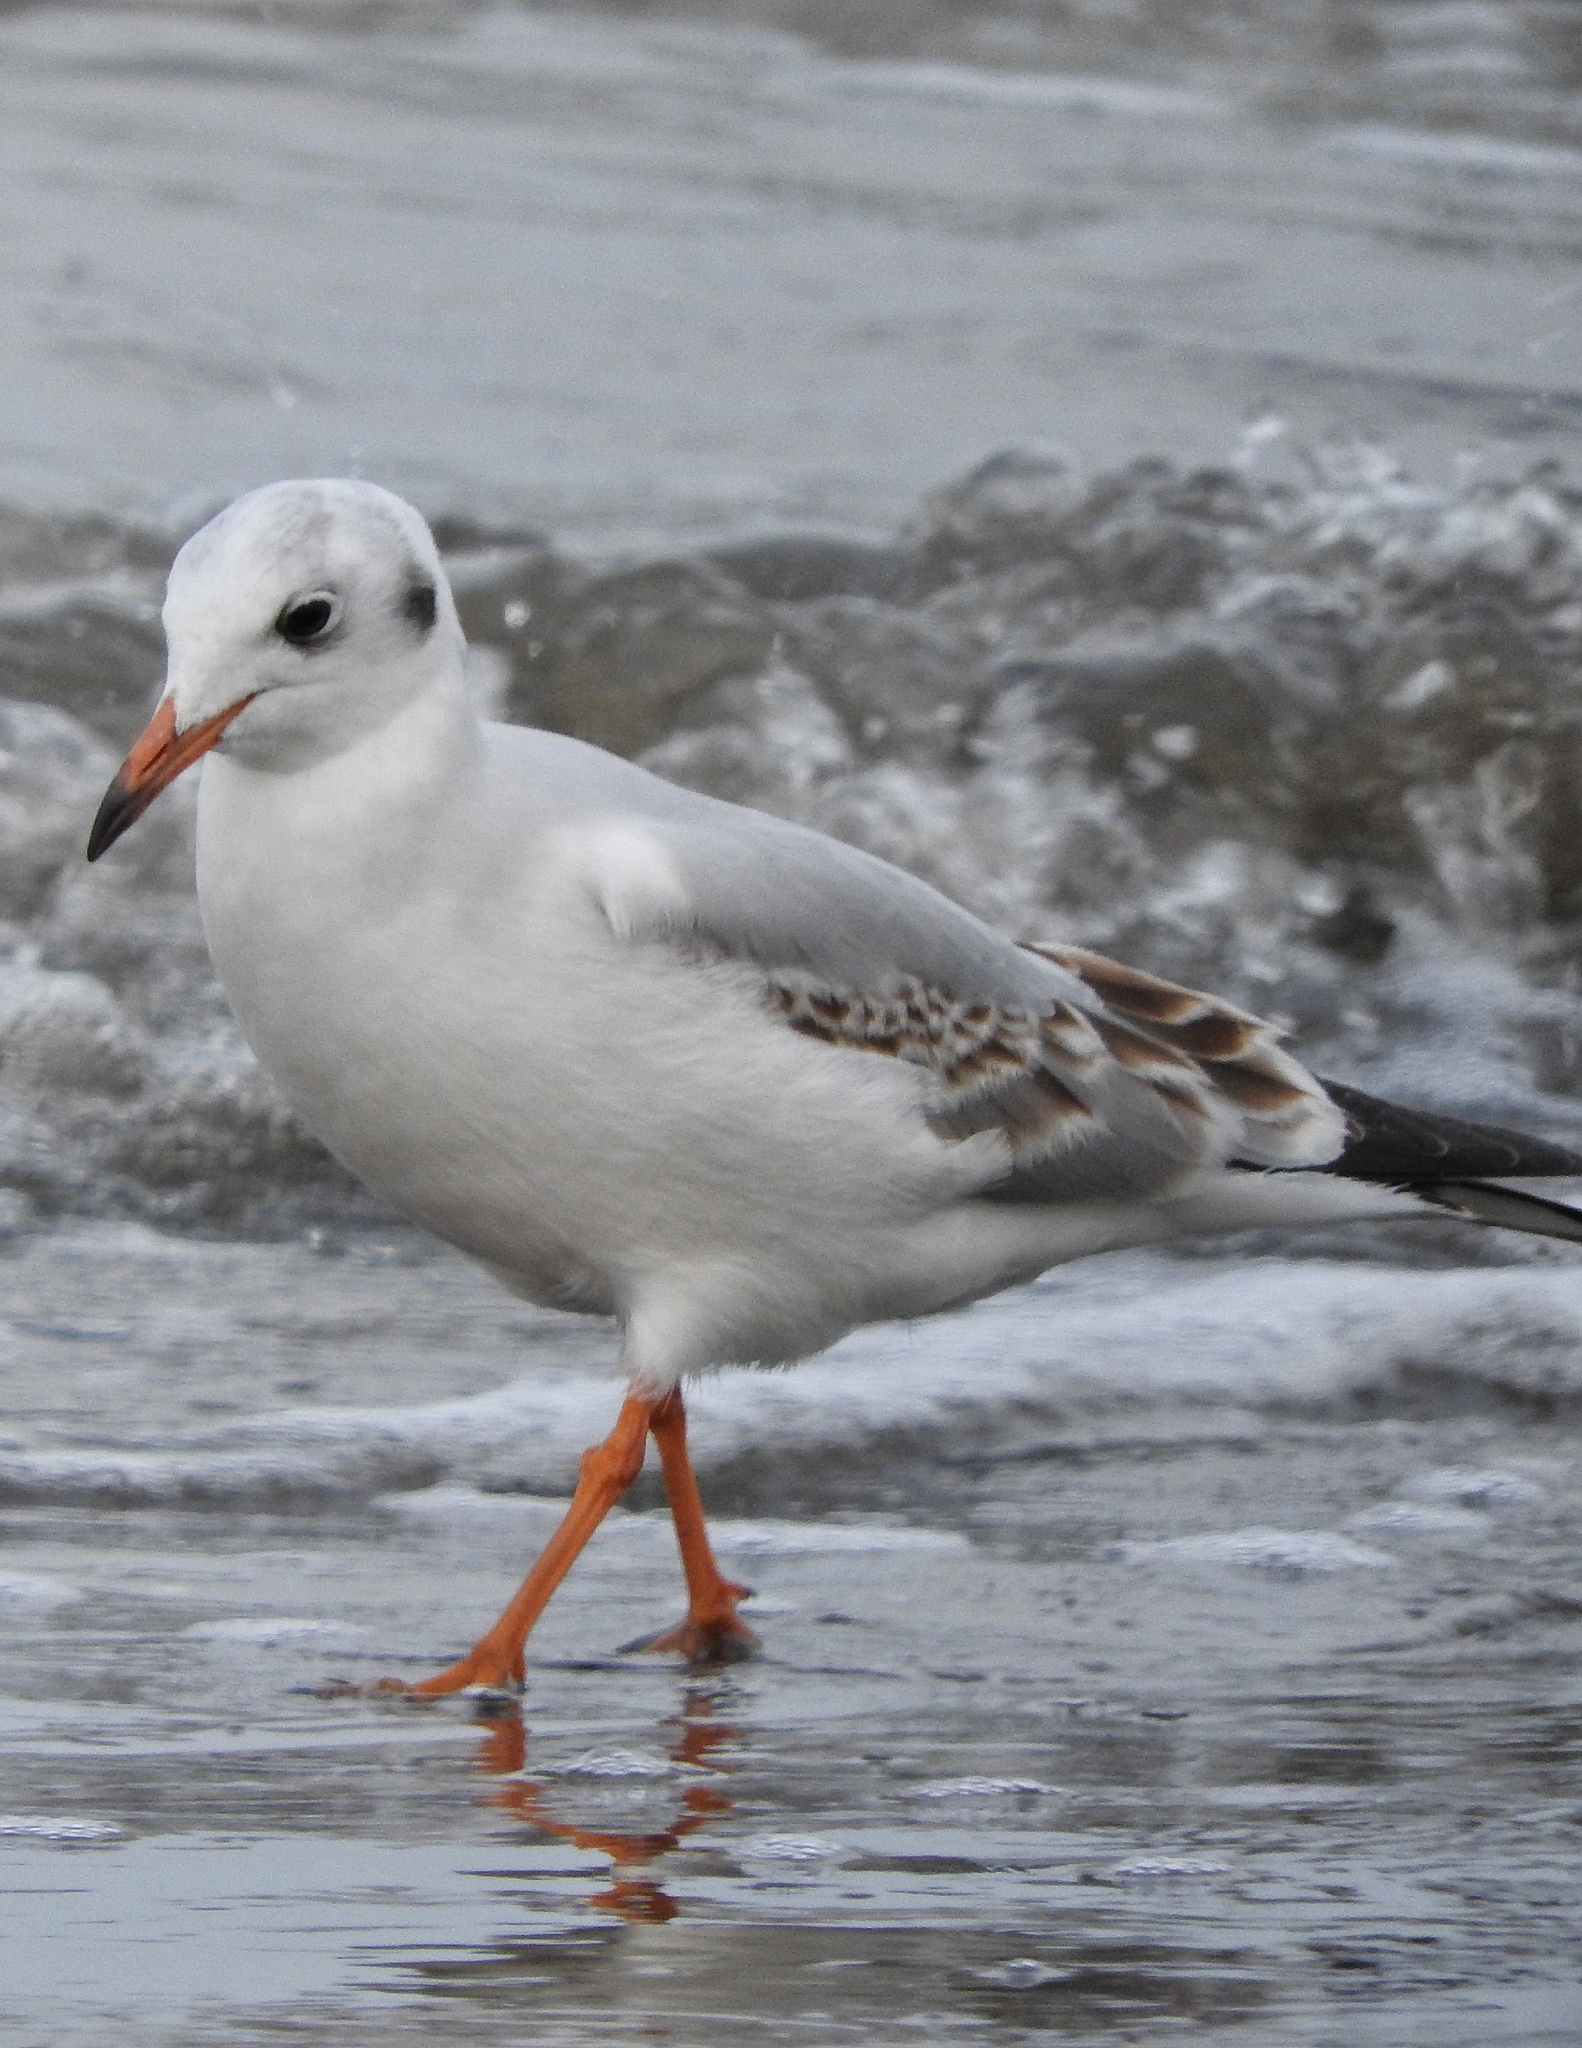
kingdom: Animalia
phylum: Chordata
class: Aves
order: Charadriiformes
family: Laridae
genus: Chroicocephalus
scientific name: Chroicocephalus ridibundus
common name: Black-headed gull
